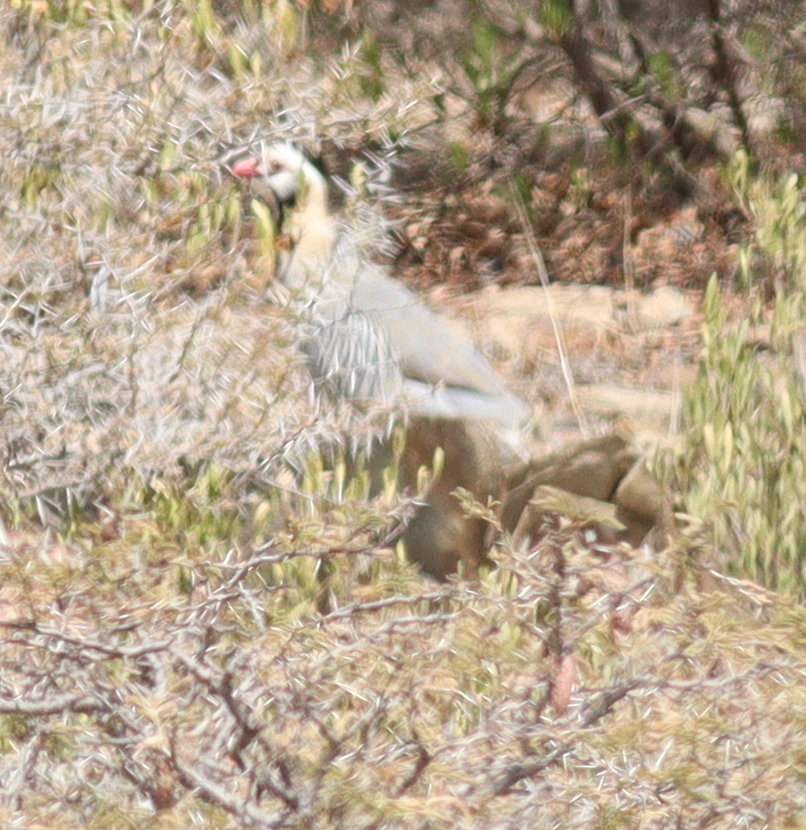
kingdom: Animalia
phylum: Chordata
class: Aves
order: Galliformes
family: Phasianidae
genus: Alectoris
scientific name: Alectoris melanocephala
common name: Arabian partridge
